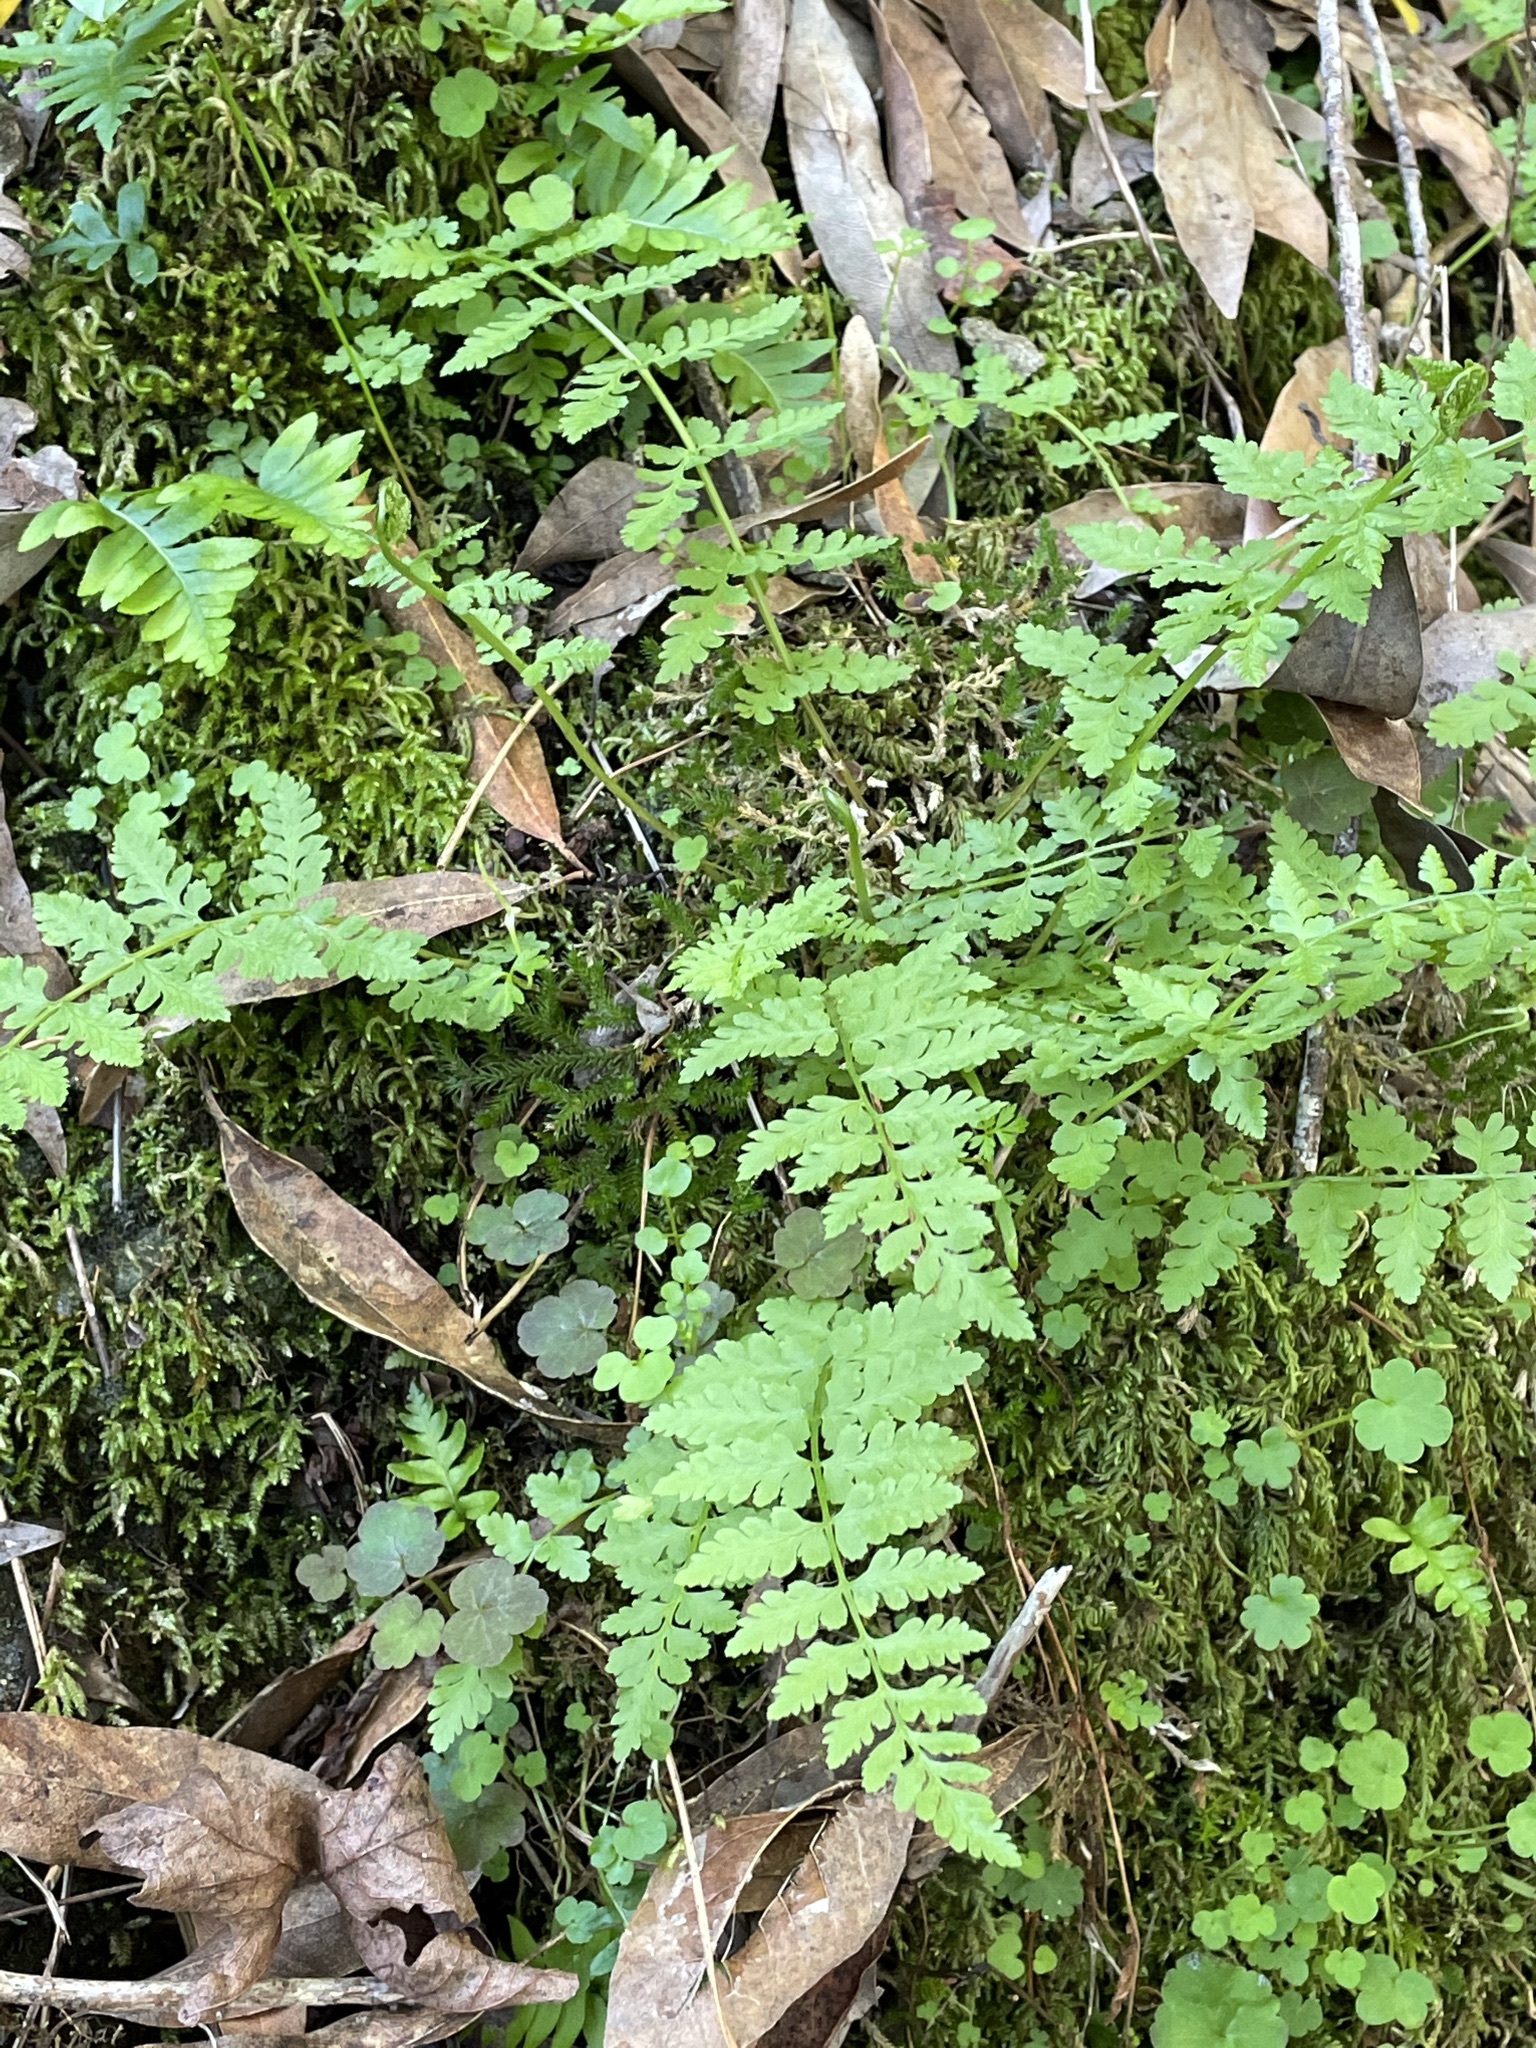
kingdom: Plantae
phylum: Tracheophyta
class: Polypodiopsida
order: Polypodiales
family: Cystopteridaceae
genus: Cystopteris
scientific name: Cystopteris fragilis
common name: Brittle bladder fern
